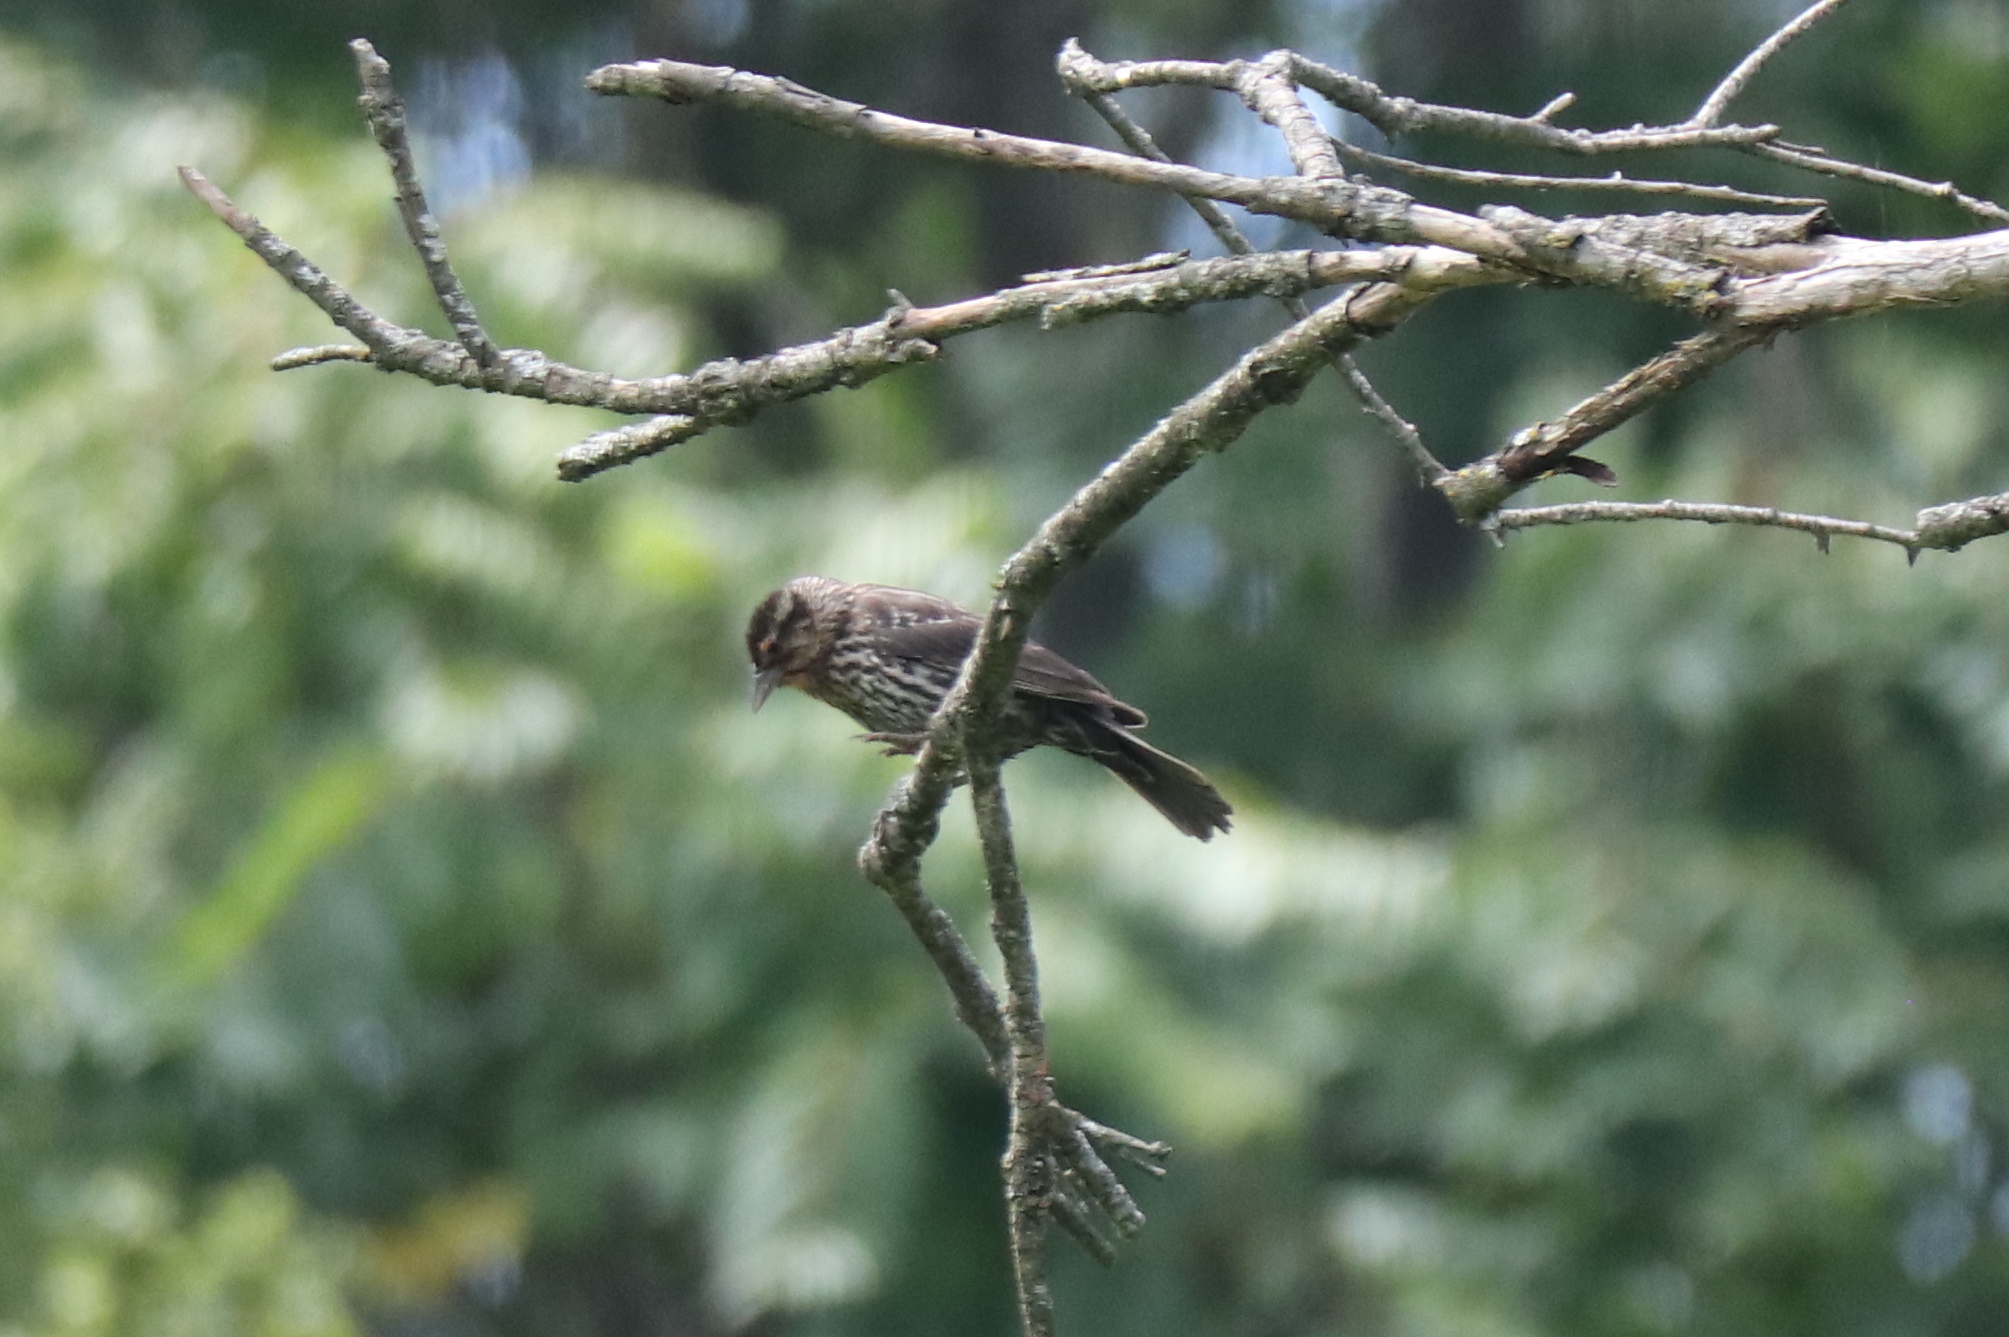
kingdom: Animalia
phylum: Chordata
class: Aves
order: Passeriformes
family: Icteridae
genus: Agelaius
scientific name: Agelaius phoeniceus
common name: Red-winged blackbird
